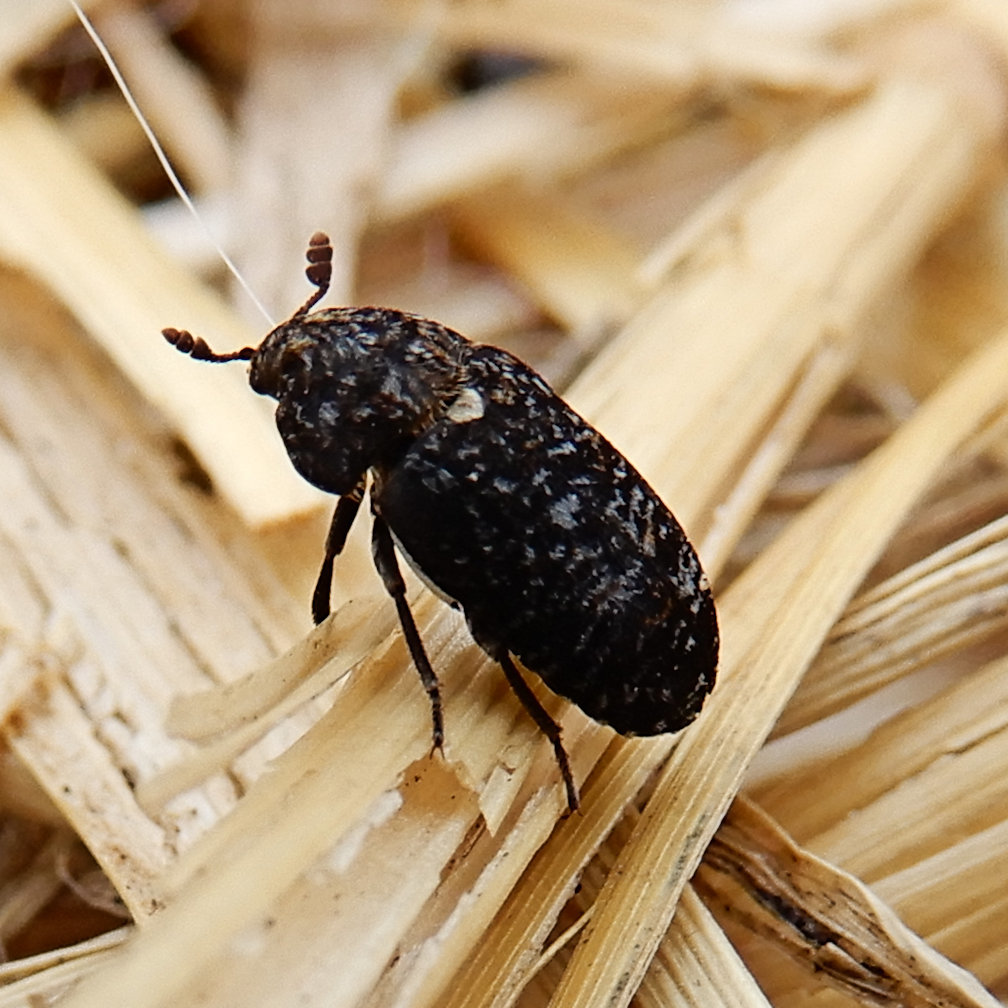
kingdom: Animalia
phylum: Arthropoda
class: Insecta
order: Coleoptera
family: Dermestidae
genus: Dermestes
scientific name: Dermestes talpinus
